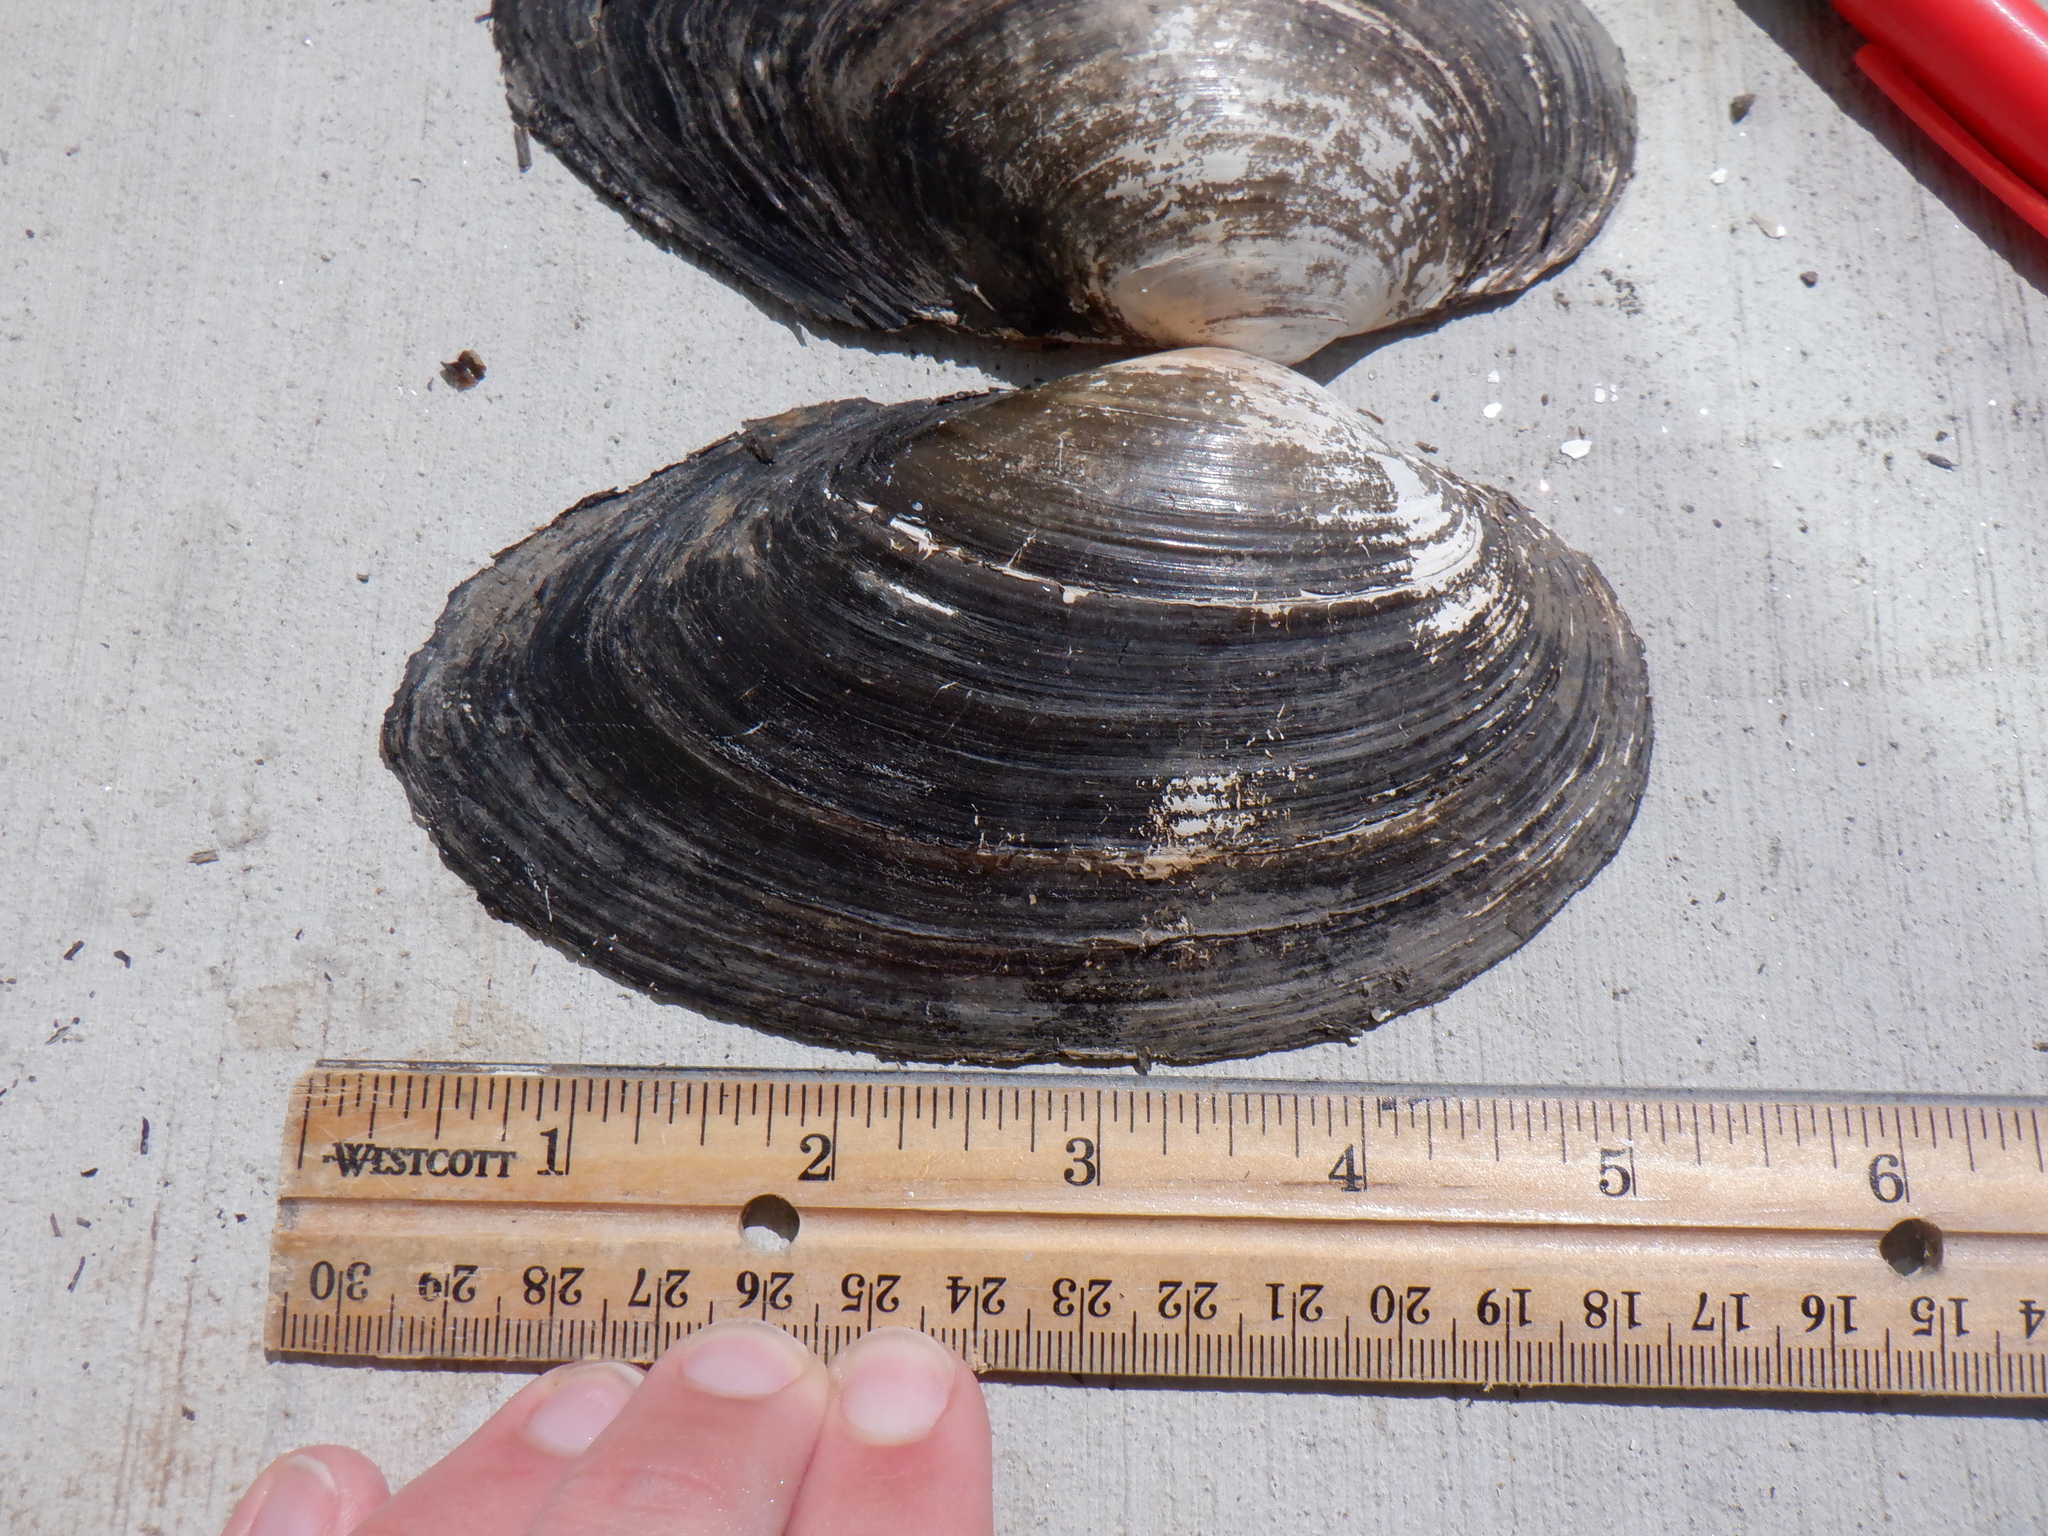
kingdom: Animalia
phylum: Mollusca
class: Bivalvia
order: Unionida
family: Unionidae
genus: Pyganodon
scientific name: Pyganodon grandis
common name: Giant floater
